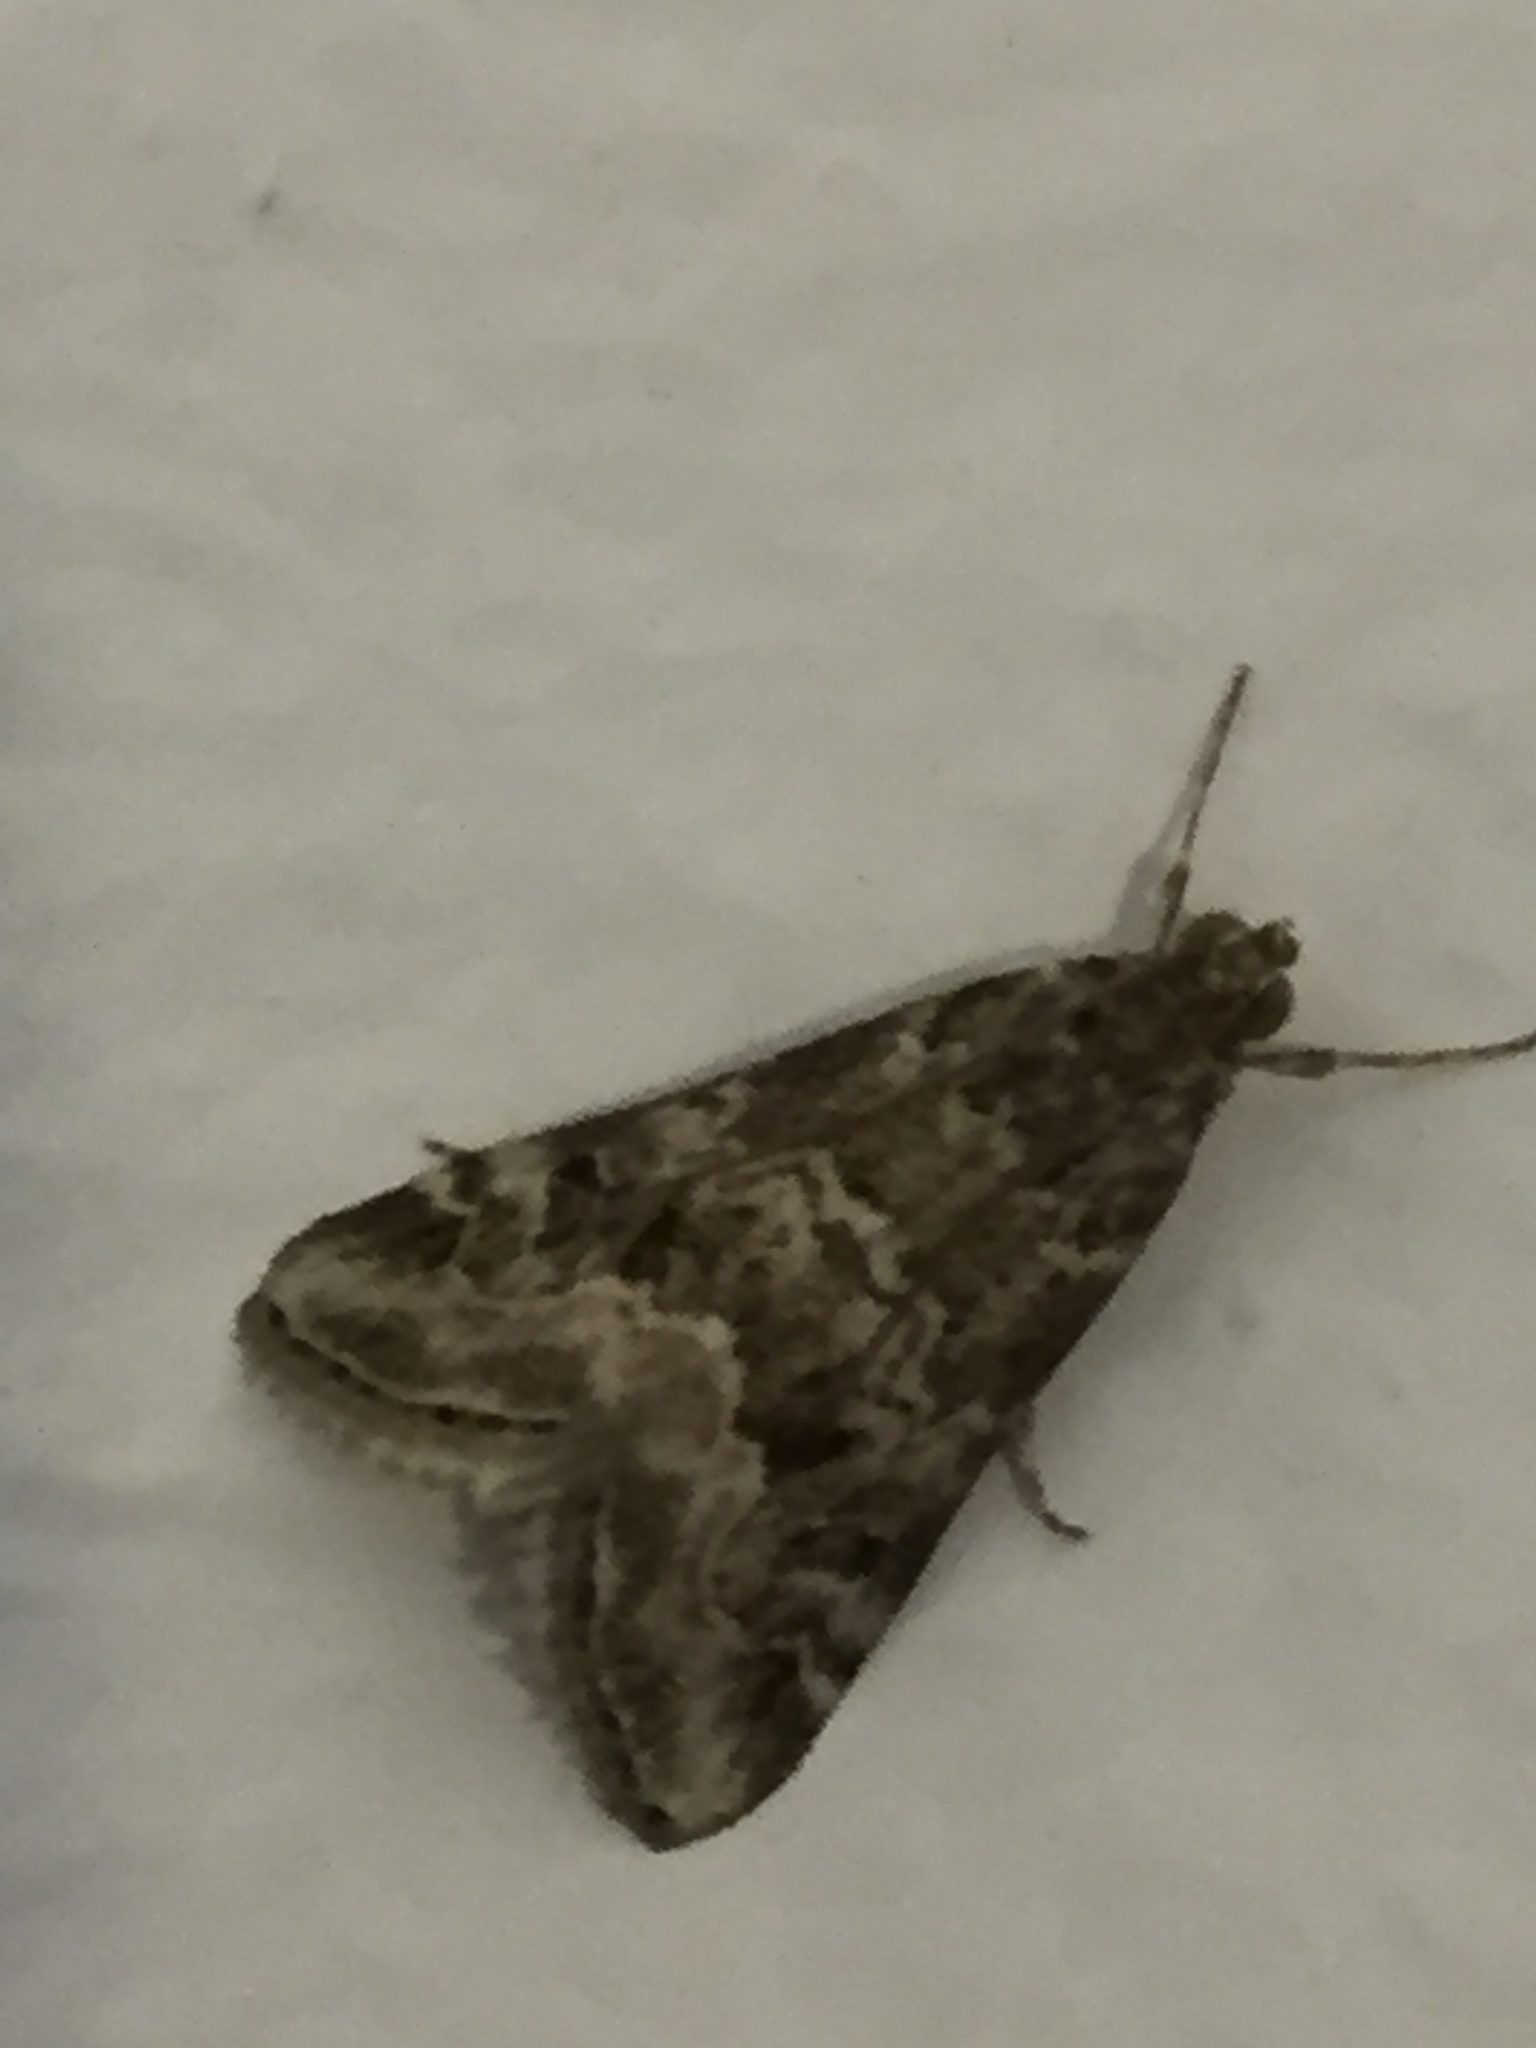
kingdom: Animalia
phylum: Arthropoda
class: Insecta
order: Lepidoptera
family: Crambidae
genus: Hellula
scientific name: Hellula undalis
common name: Cabbage webworm
